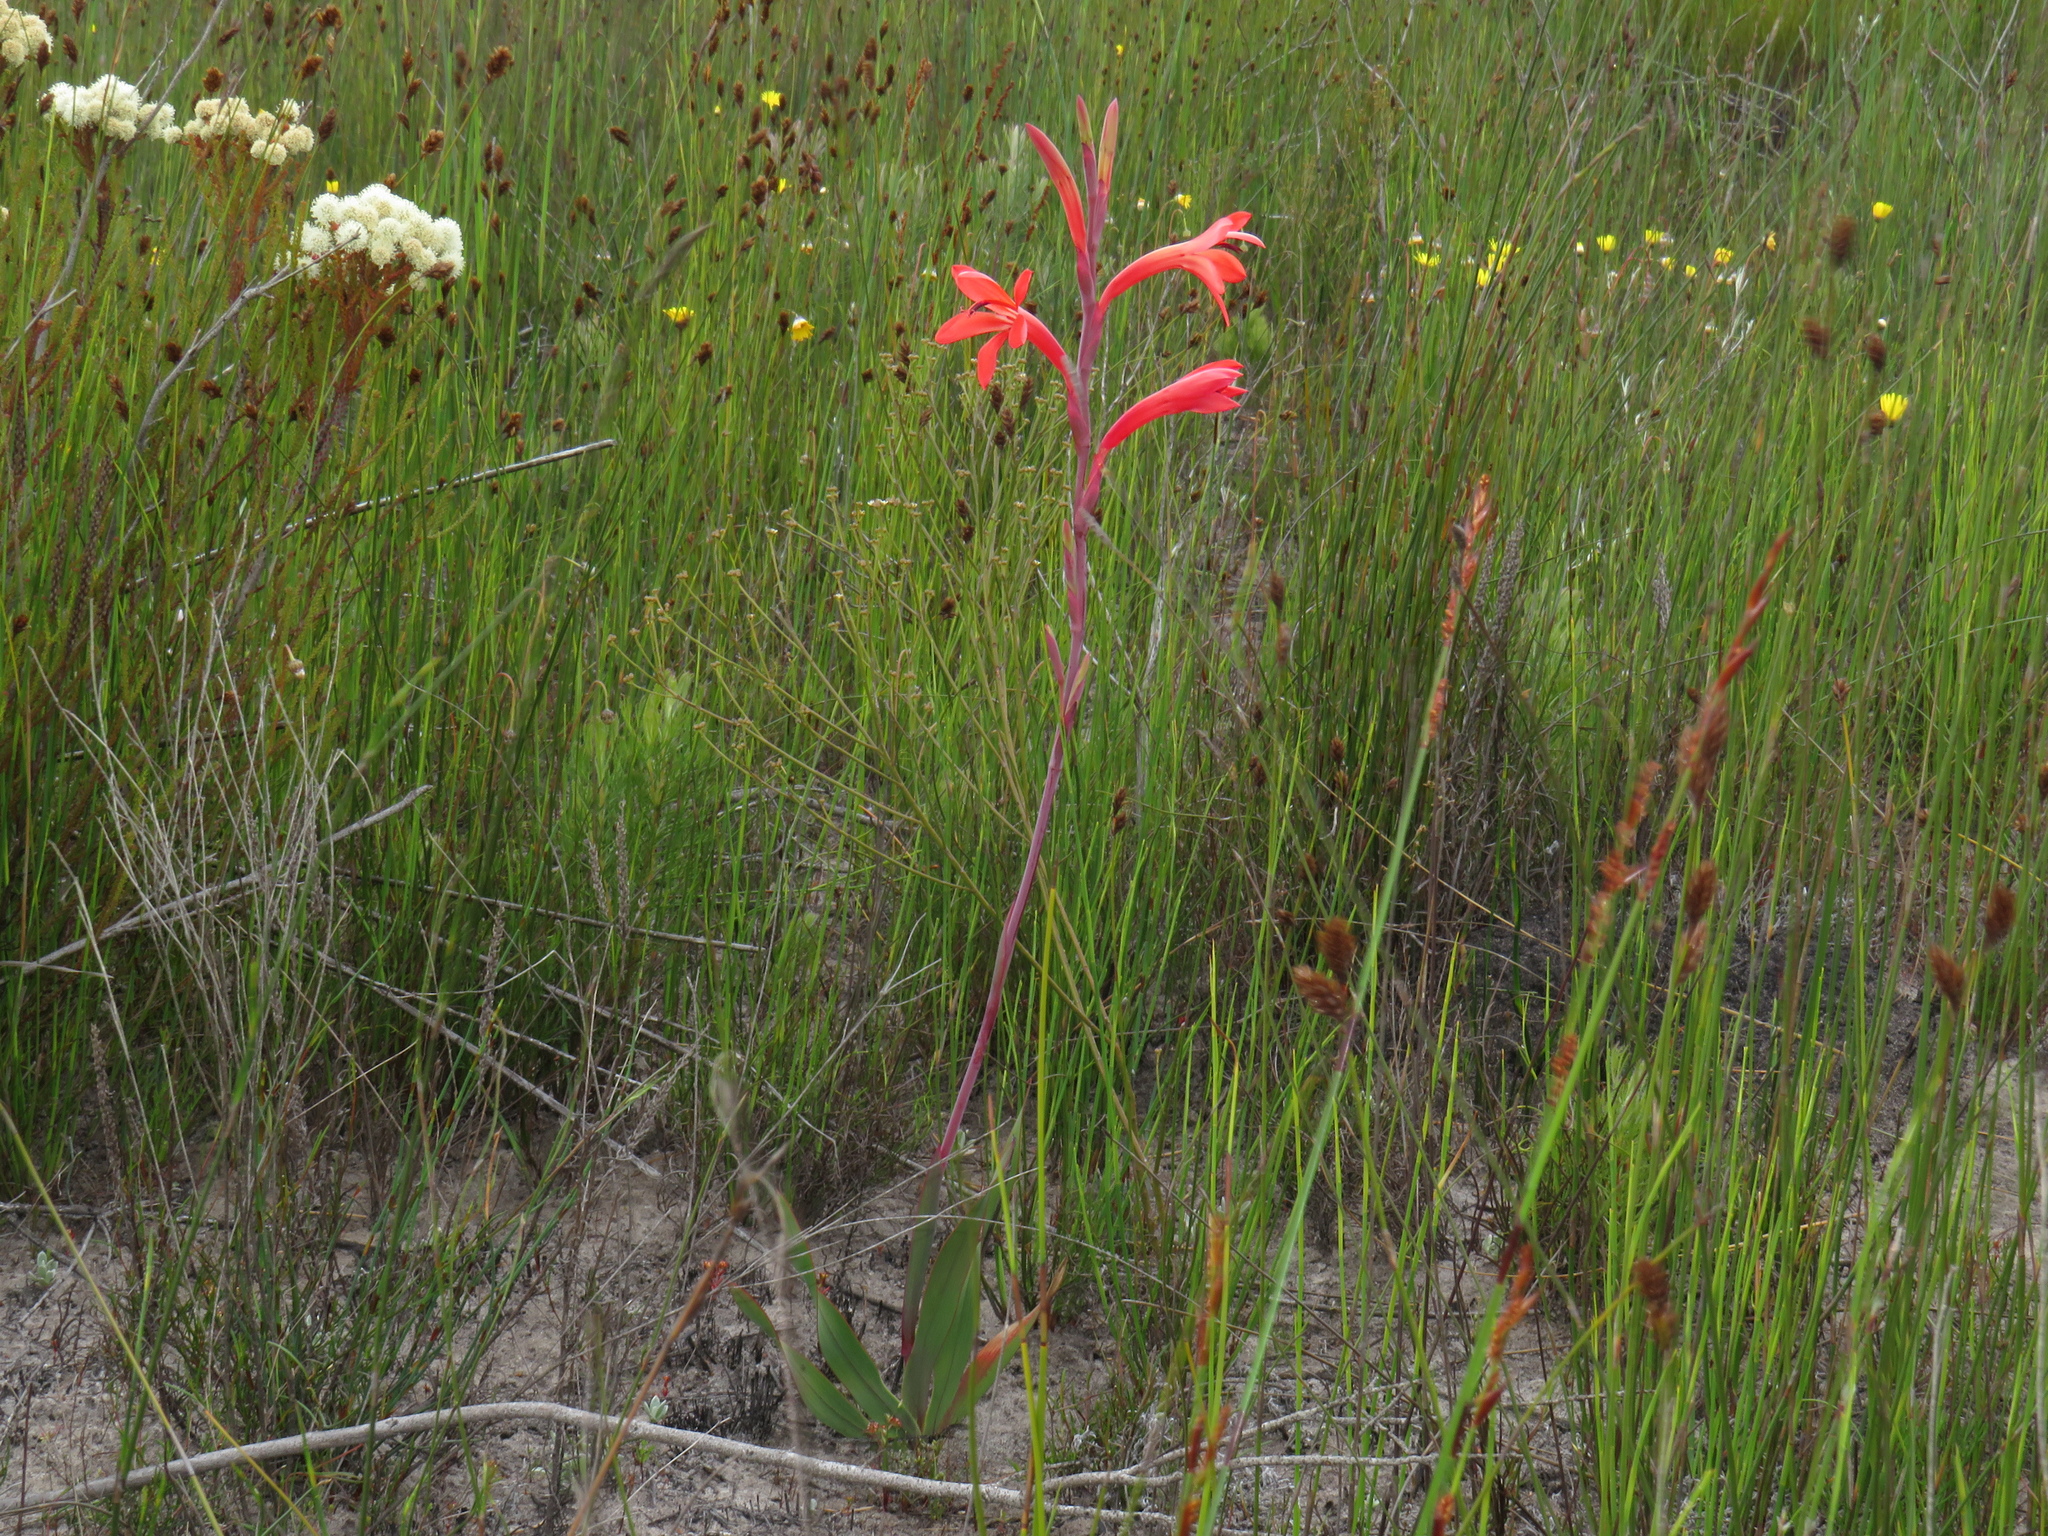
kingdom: Plantae
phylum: Tracheophyta
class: Liliopsida
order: Asparagales
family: Iridaceae
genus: Watsonia
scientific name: Watsonia coccinea
